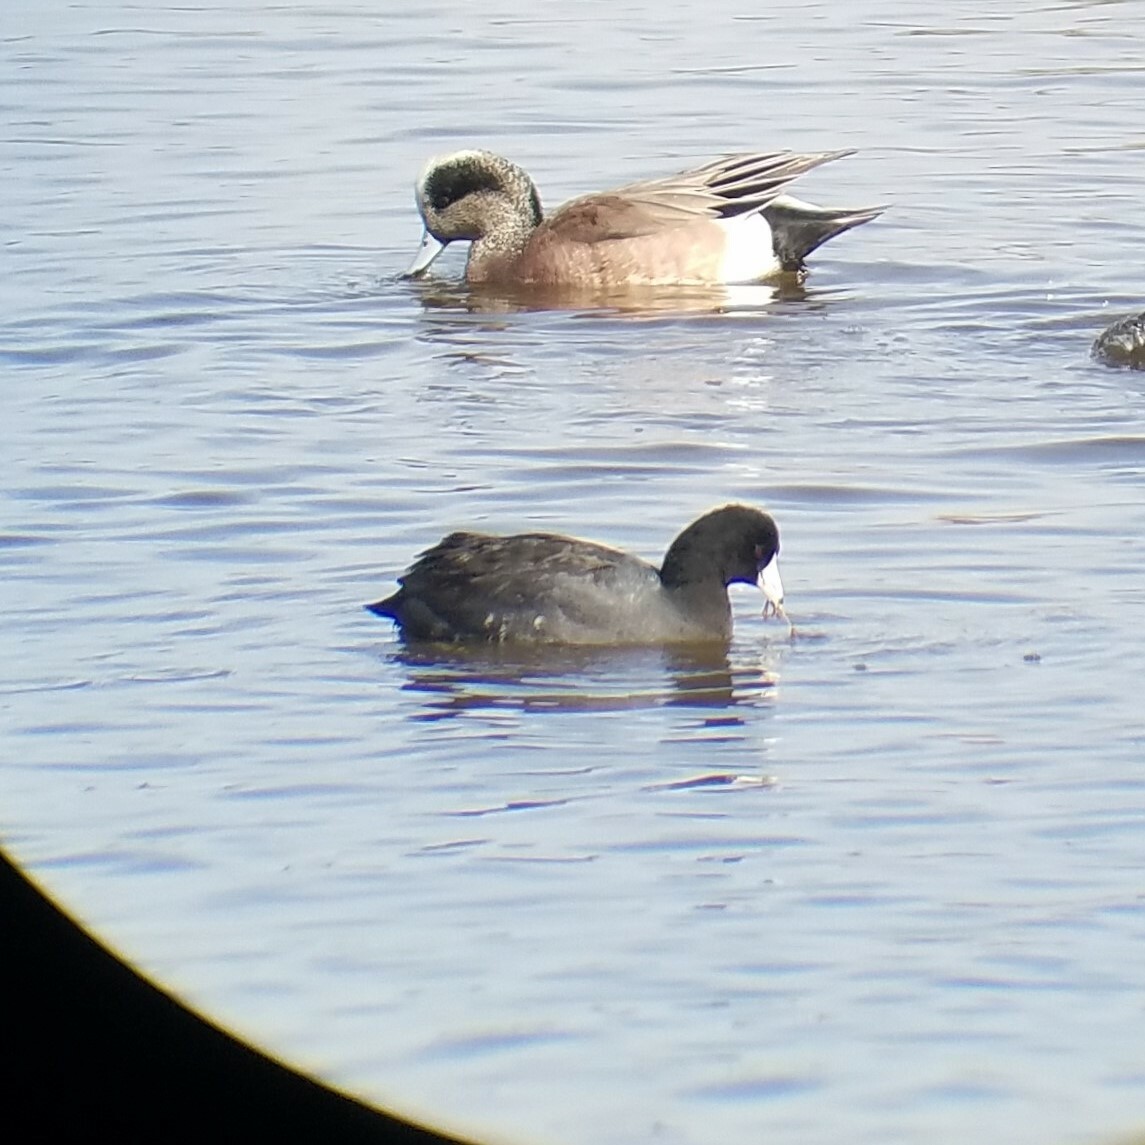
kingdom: Animalia
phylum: Chordata
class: Aves
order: Gruiformes
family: Rallidae
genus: Fulica
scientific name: Fulica americana
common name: American coot
